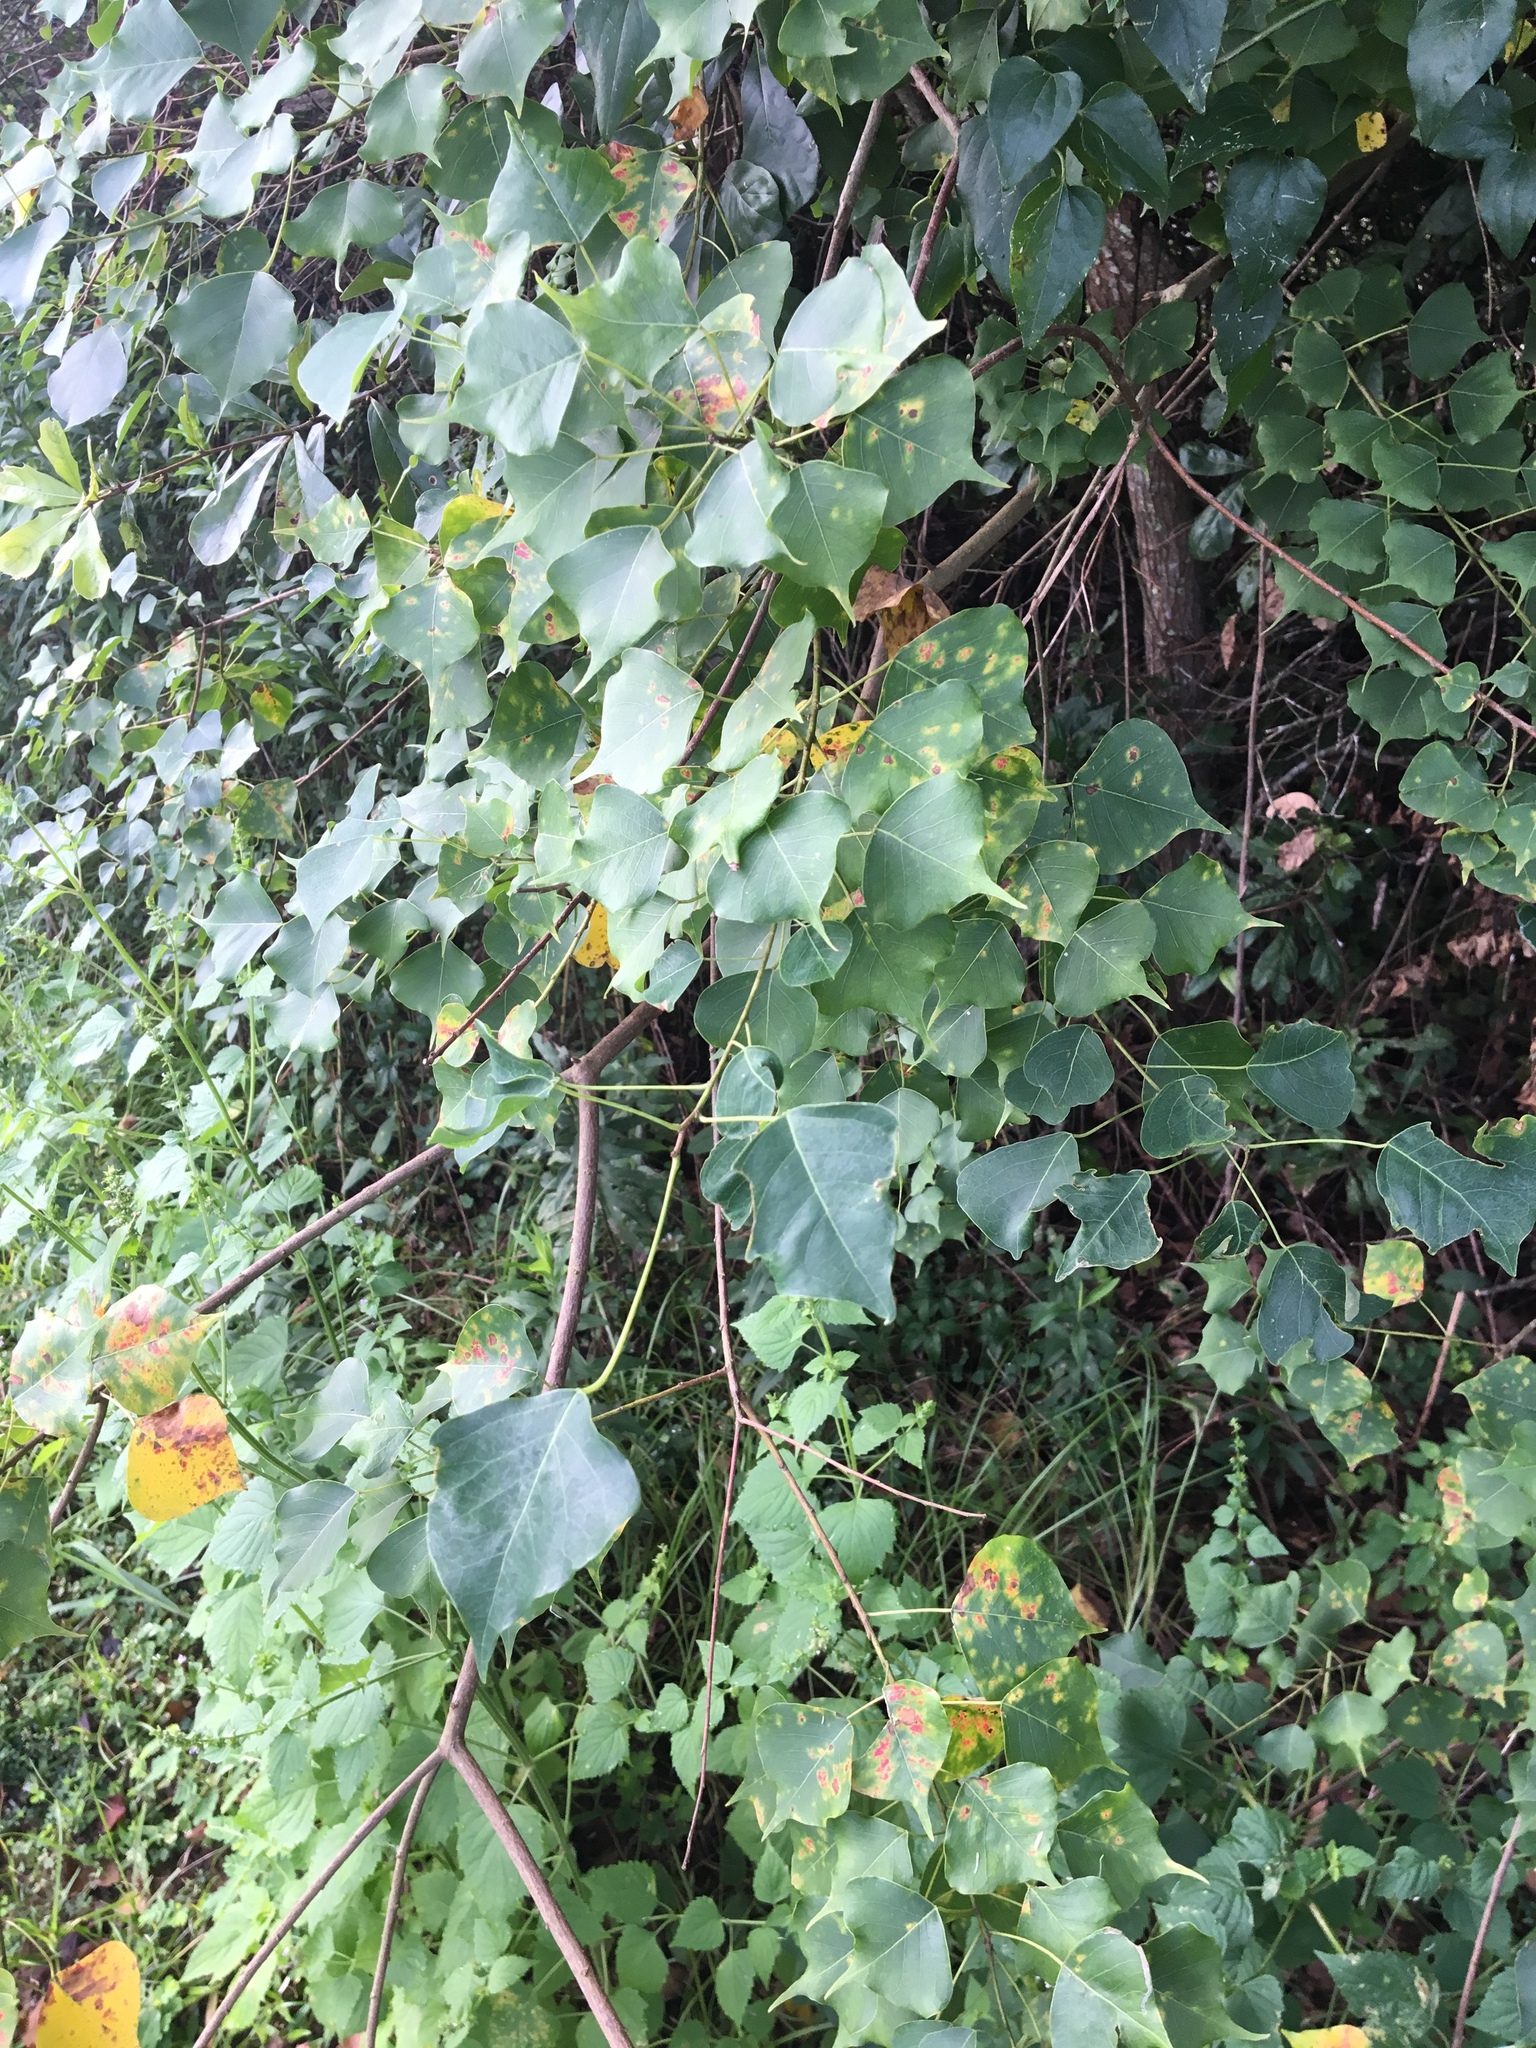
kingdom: Plantae
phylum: Tracheophyta
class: Magnoliopsida
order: Malpighiales
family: Euphorbiaceae
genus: Triadica
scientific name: Triadica sebifera
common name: Chinese tallow
